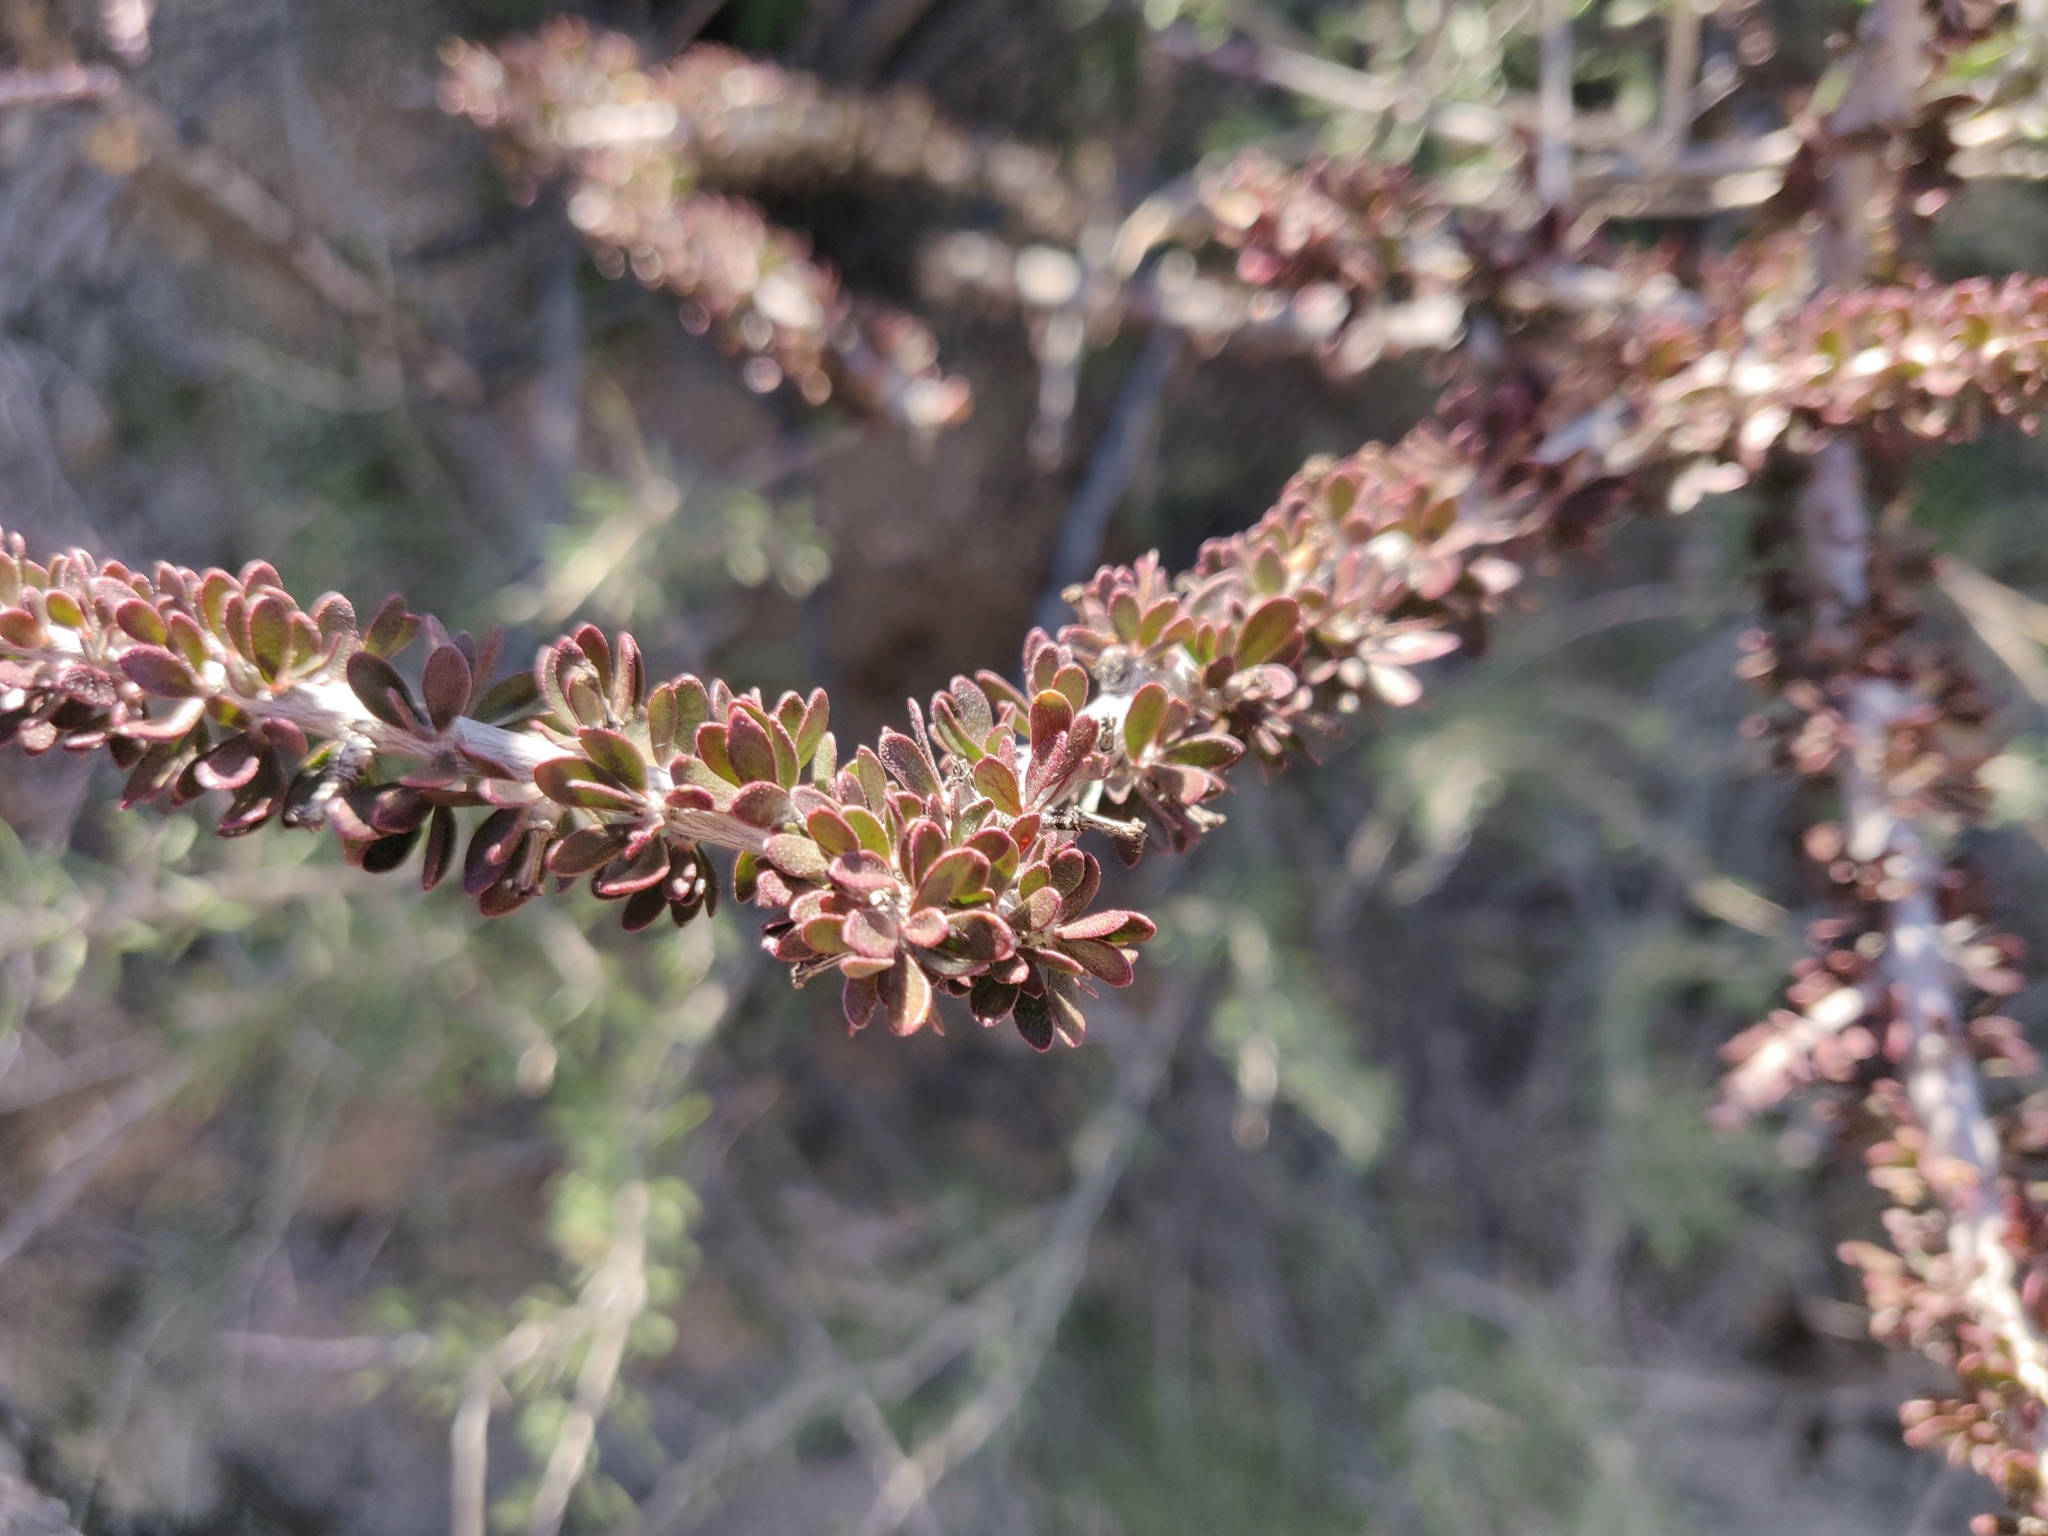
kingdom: Plantae
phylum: Tracheophyta
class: Magnoliopsida
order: Malpighiales
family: Picrodendraceae
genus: Tetracoccus
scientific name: Tetracoccus hallii
